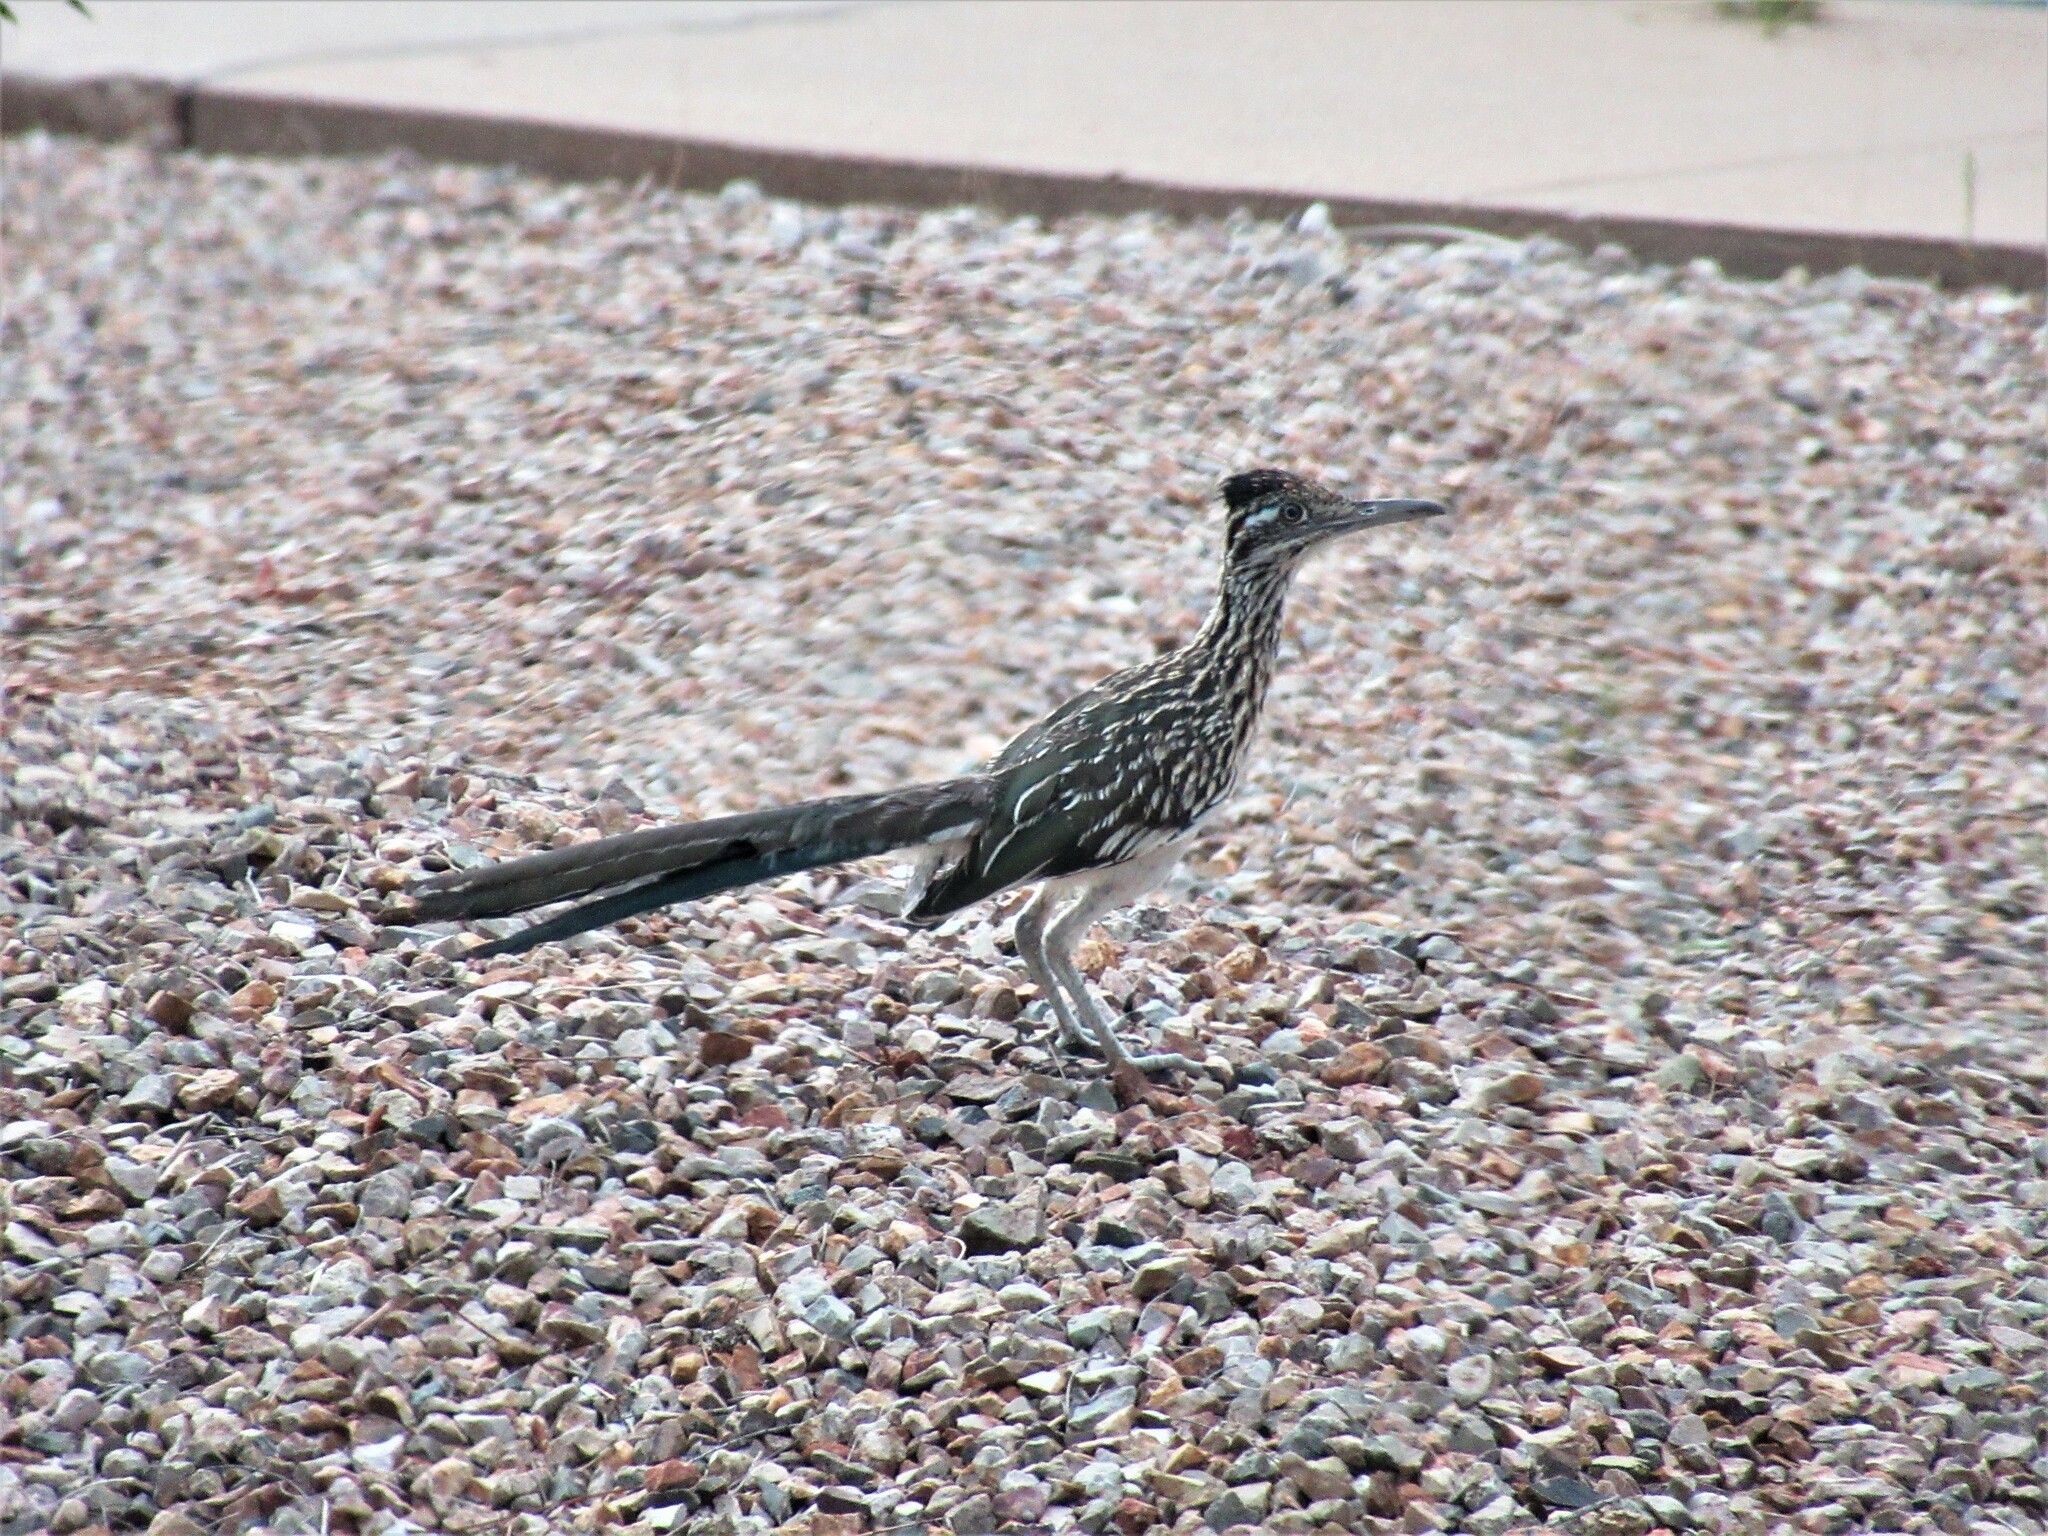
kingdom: Animalia
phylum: Chordata
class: Aves
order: Cuculiformes
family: Cuculidae
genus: Geococcyx
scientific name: Geococcyx californianus
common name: Greater roadrunner
